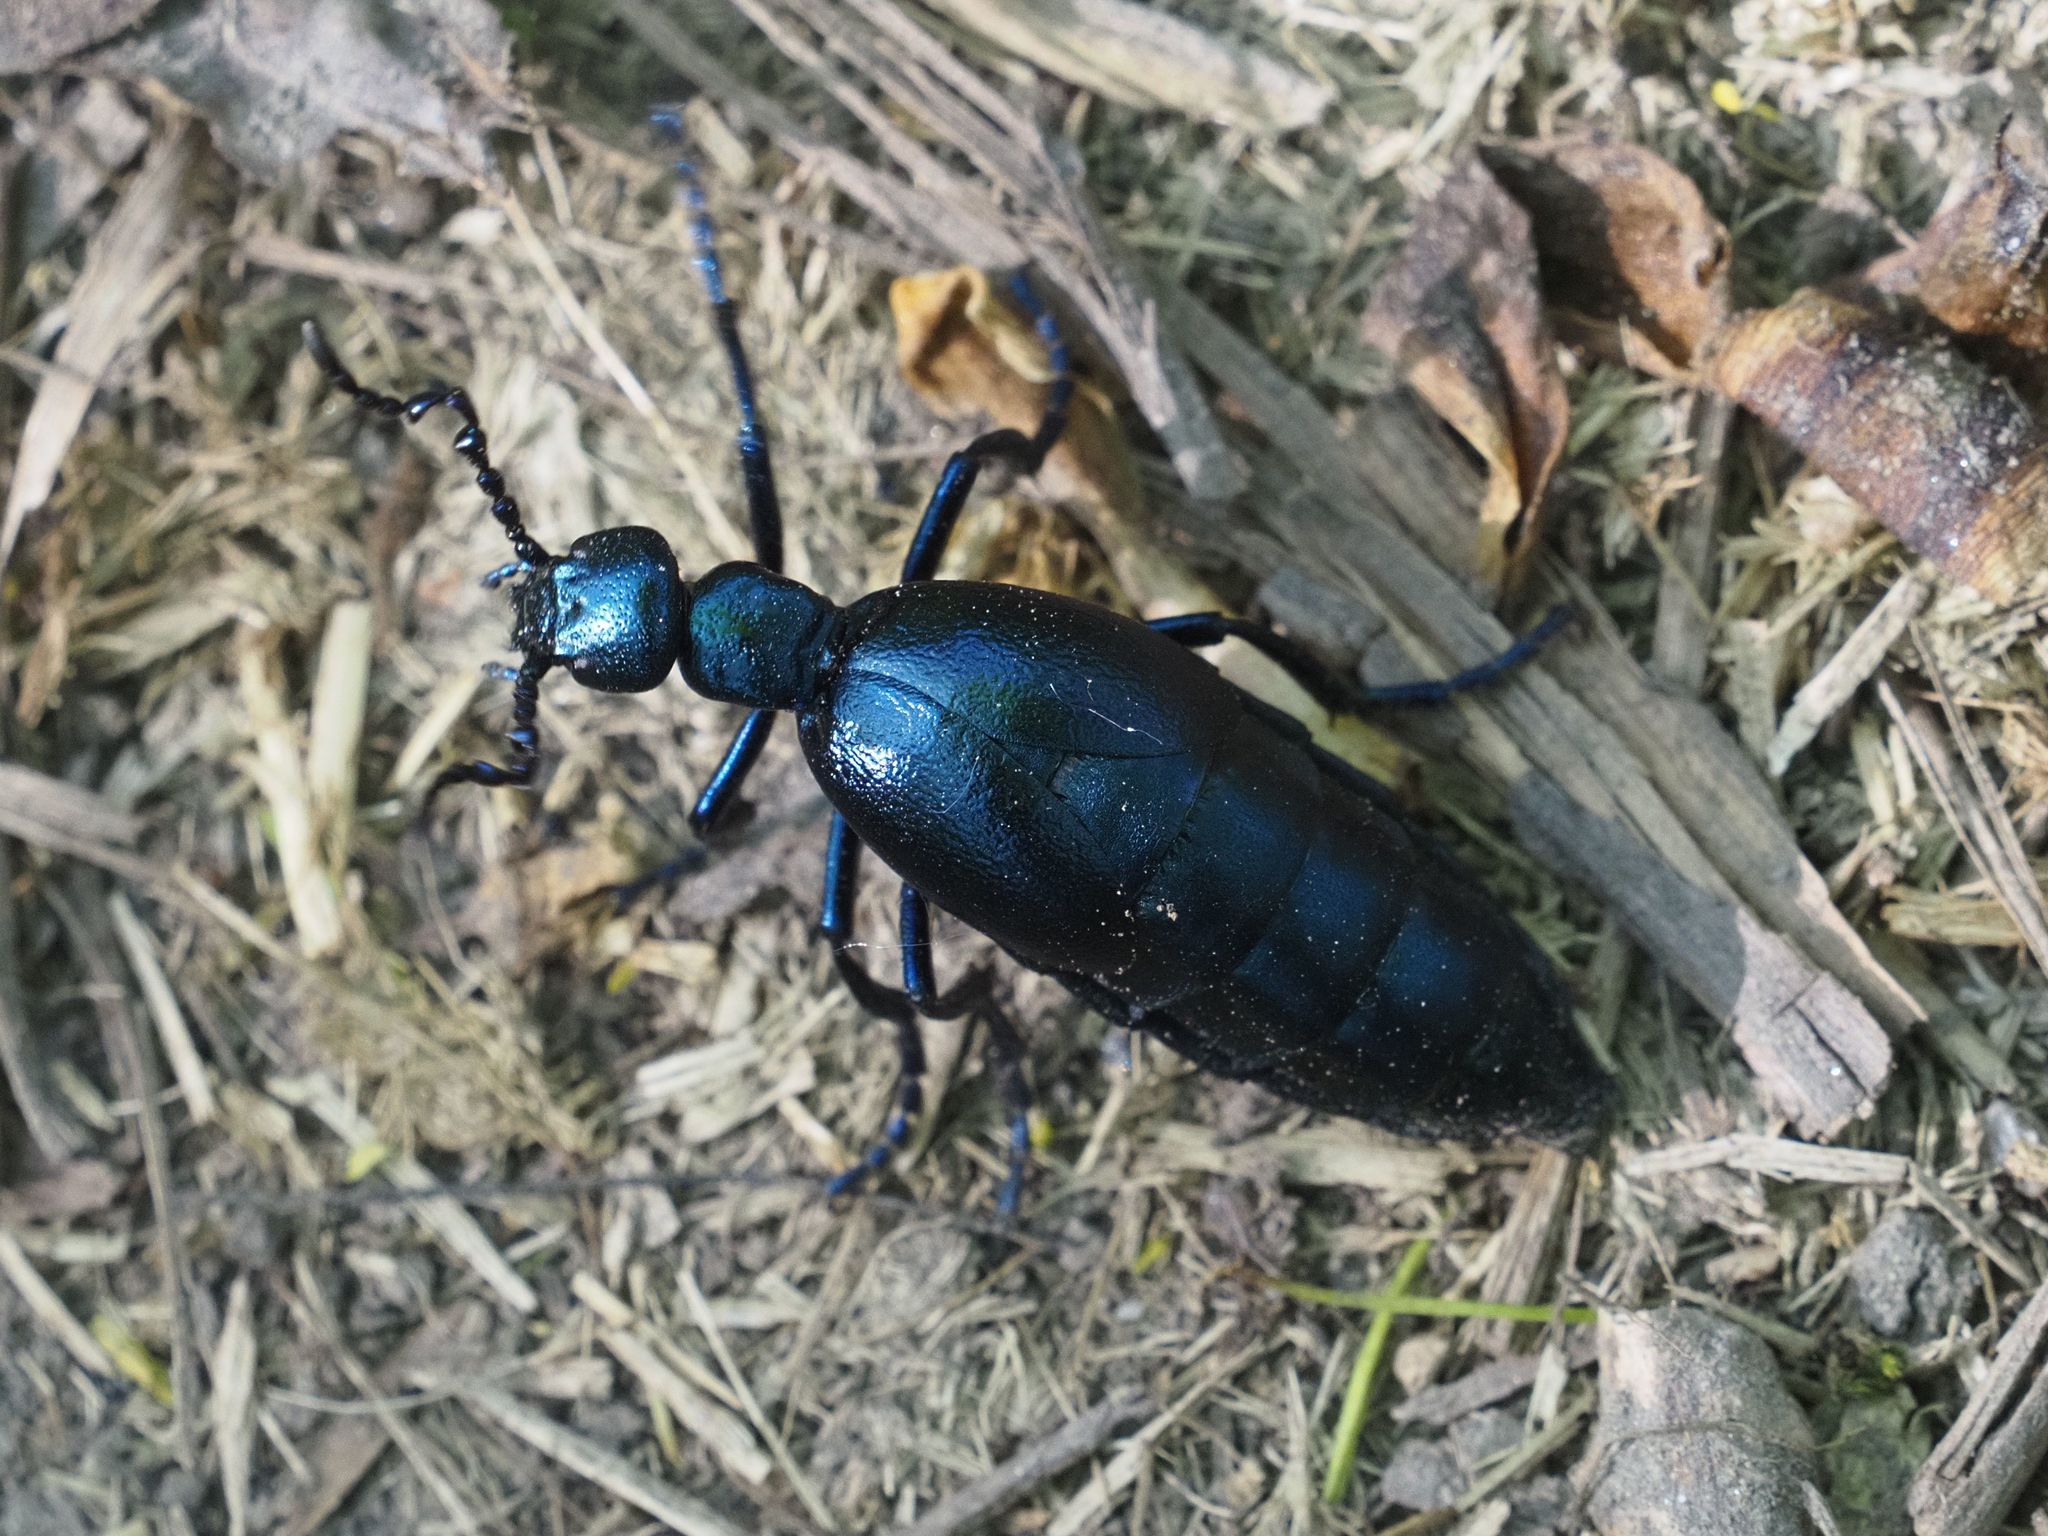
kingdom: Animalia
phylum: Arthropoda
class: Insecta
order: Coleoptera
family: Meloidae
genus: Meloe
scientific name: Meloe violaceus
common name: Violet oil-beetle
